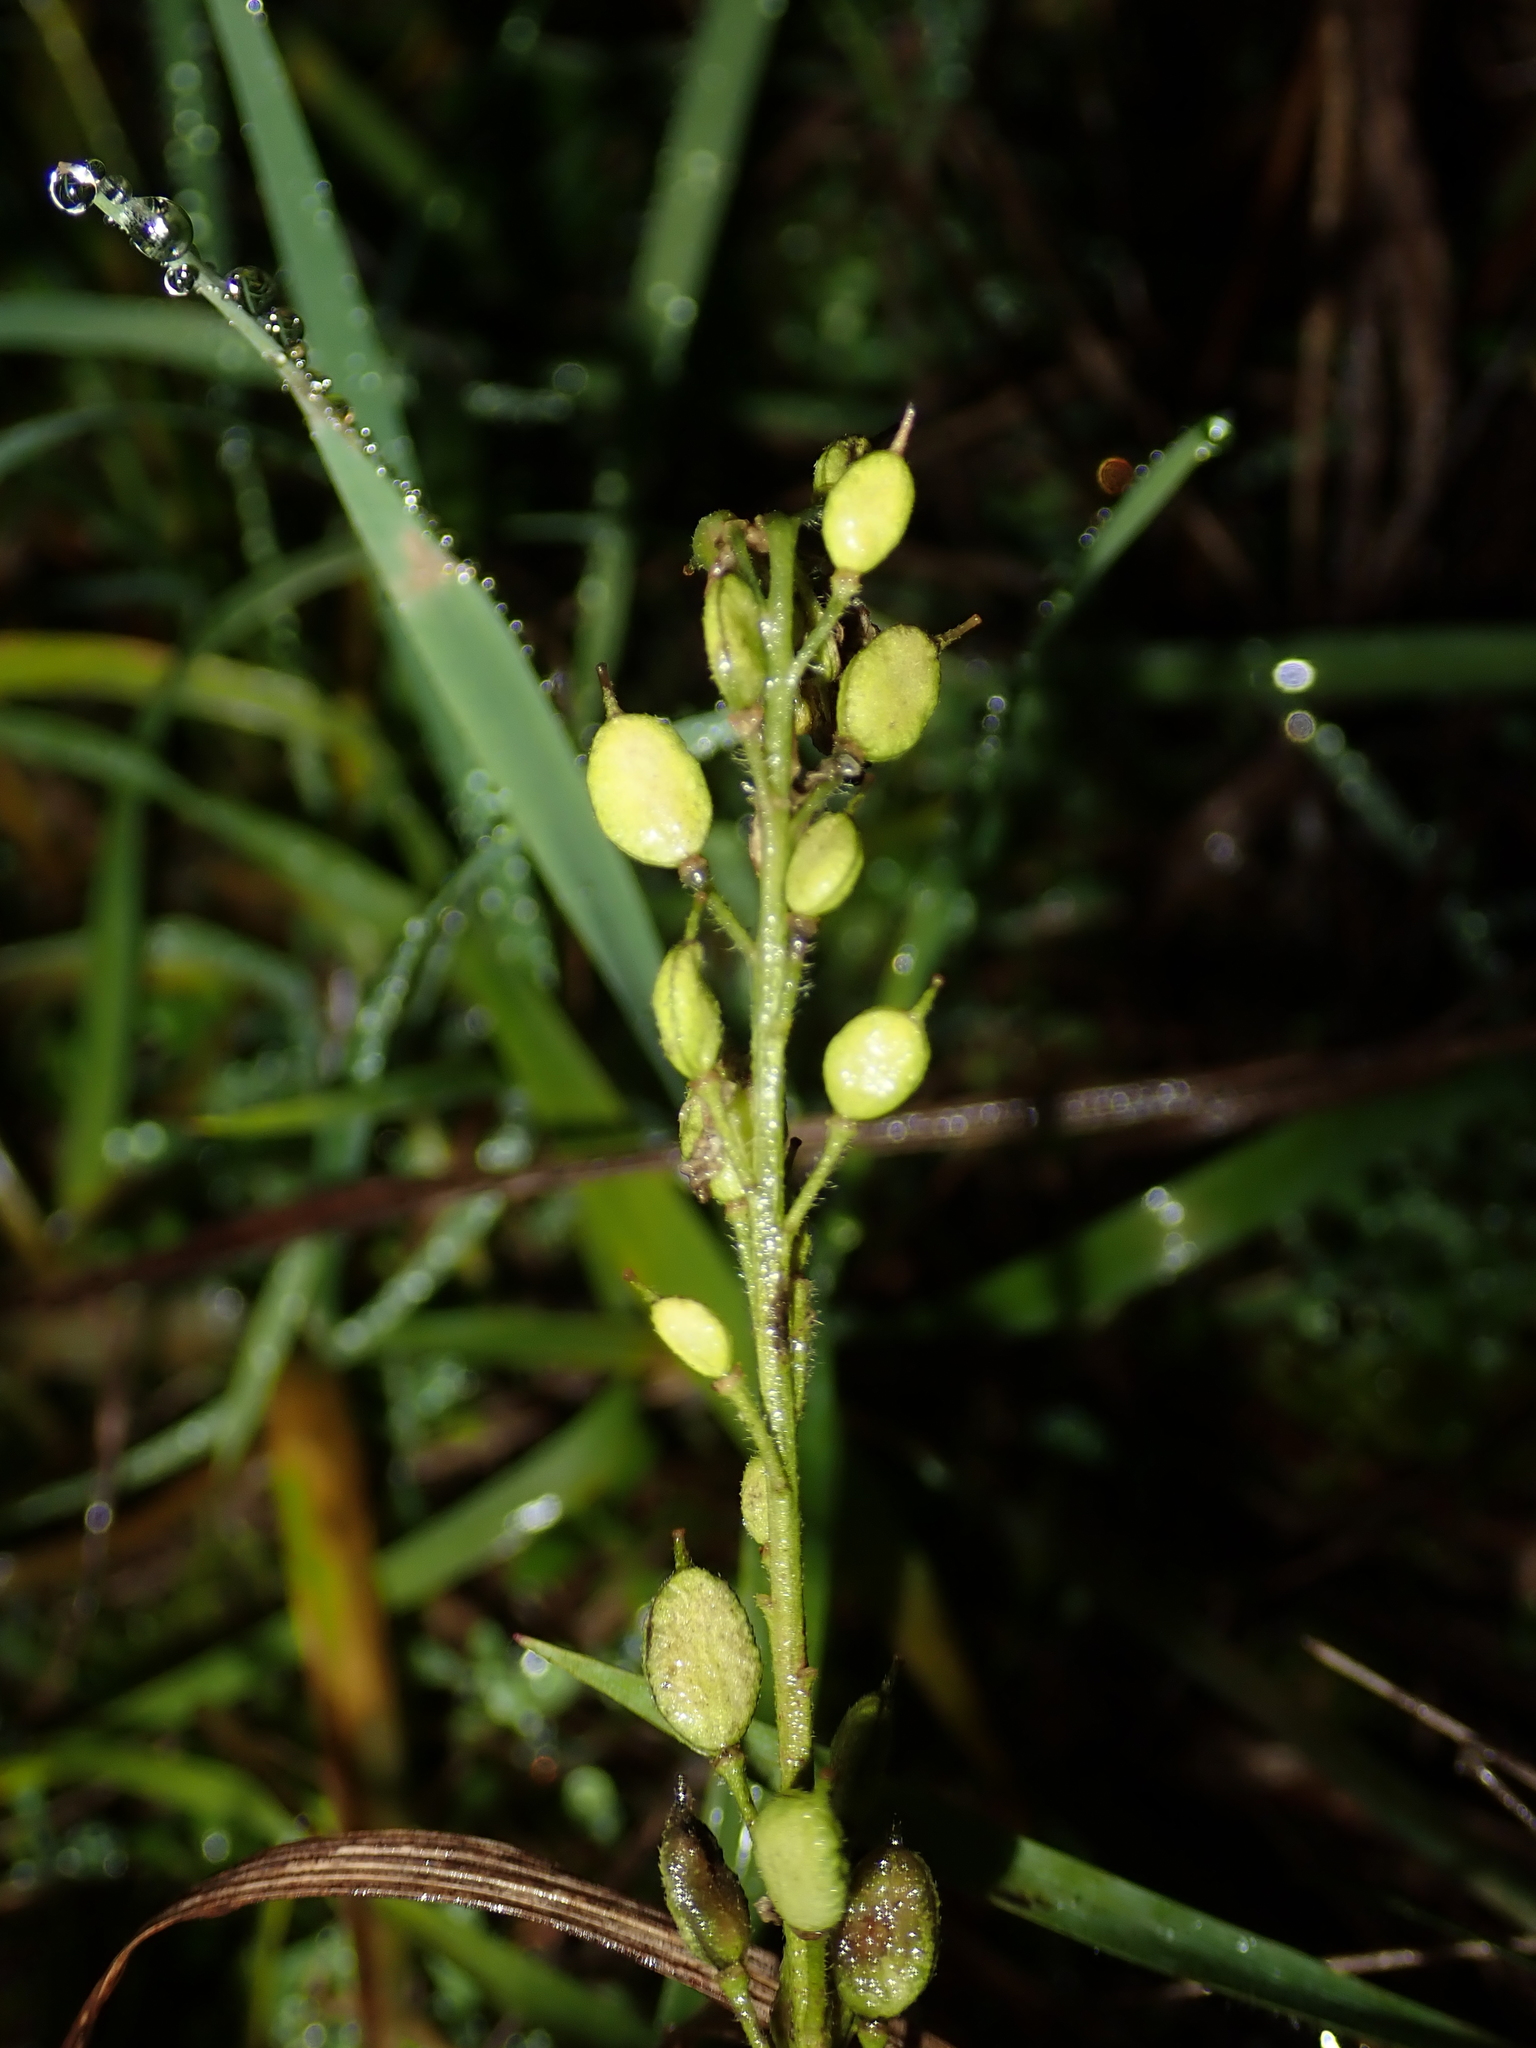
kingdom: Plantae
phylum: Tracheophyta
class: Magnoliopsida
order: Brassicales
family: Brassicaceae
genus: Berteroa
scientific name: Berteroa incana
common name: Hoary alison
